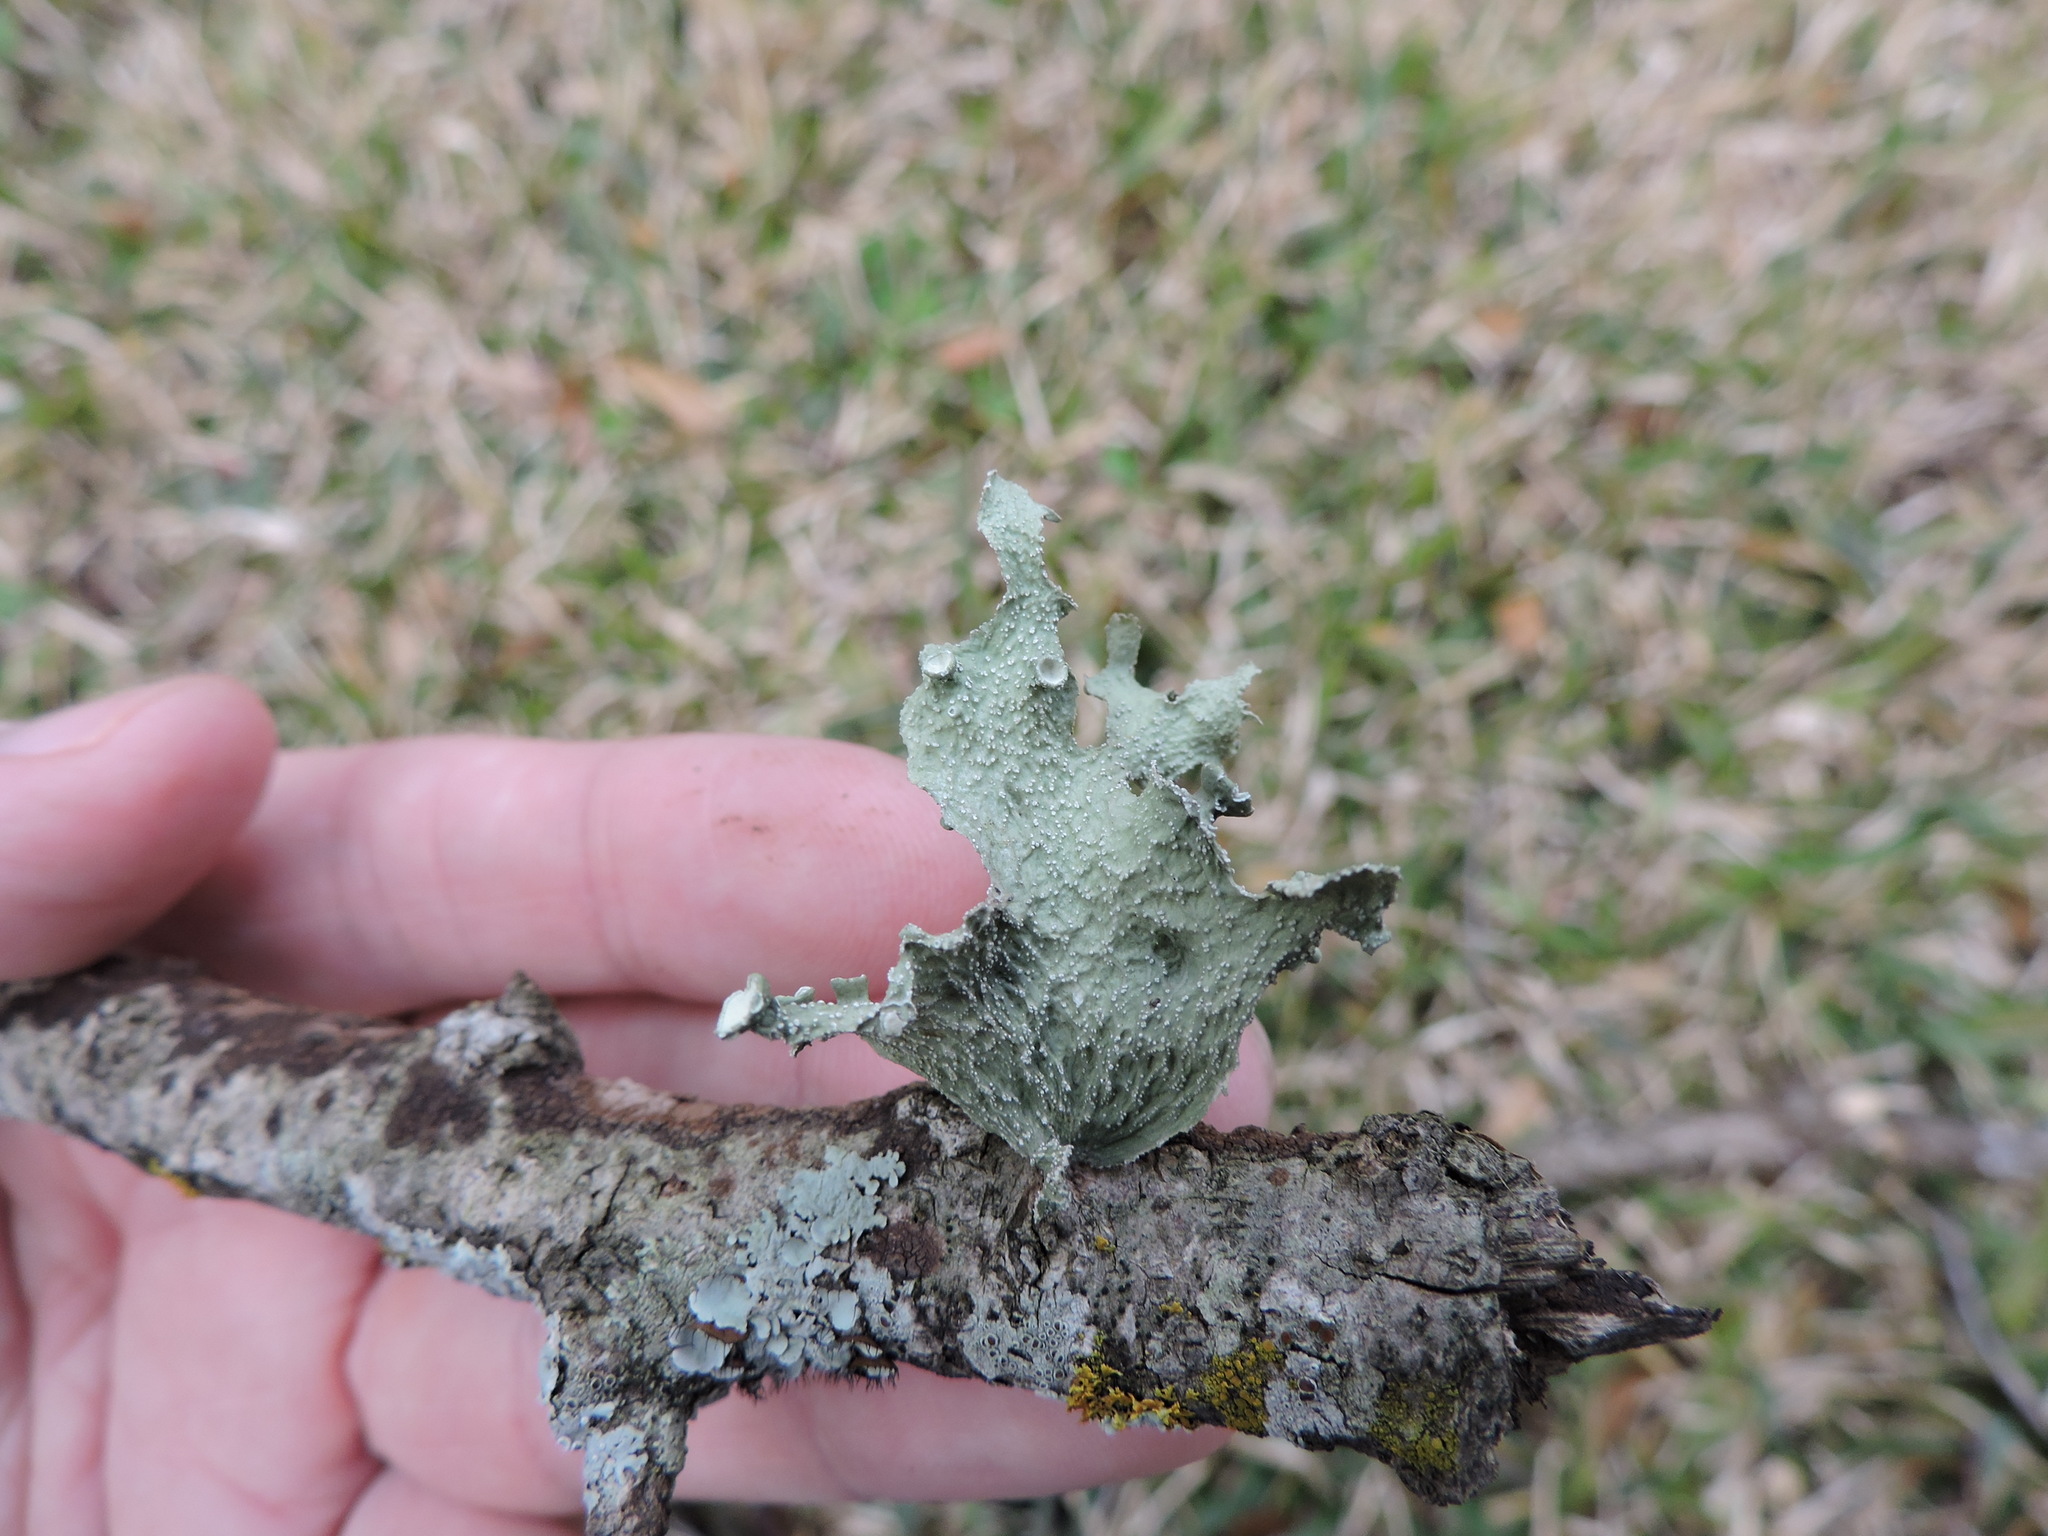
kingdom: Fungi
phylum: Ascomycota
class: Lecanoromycetes
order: Lecanorales
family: Ramalinaceae
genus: Ramalina
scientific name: Ramalina complanata
